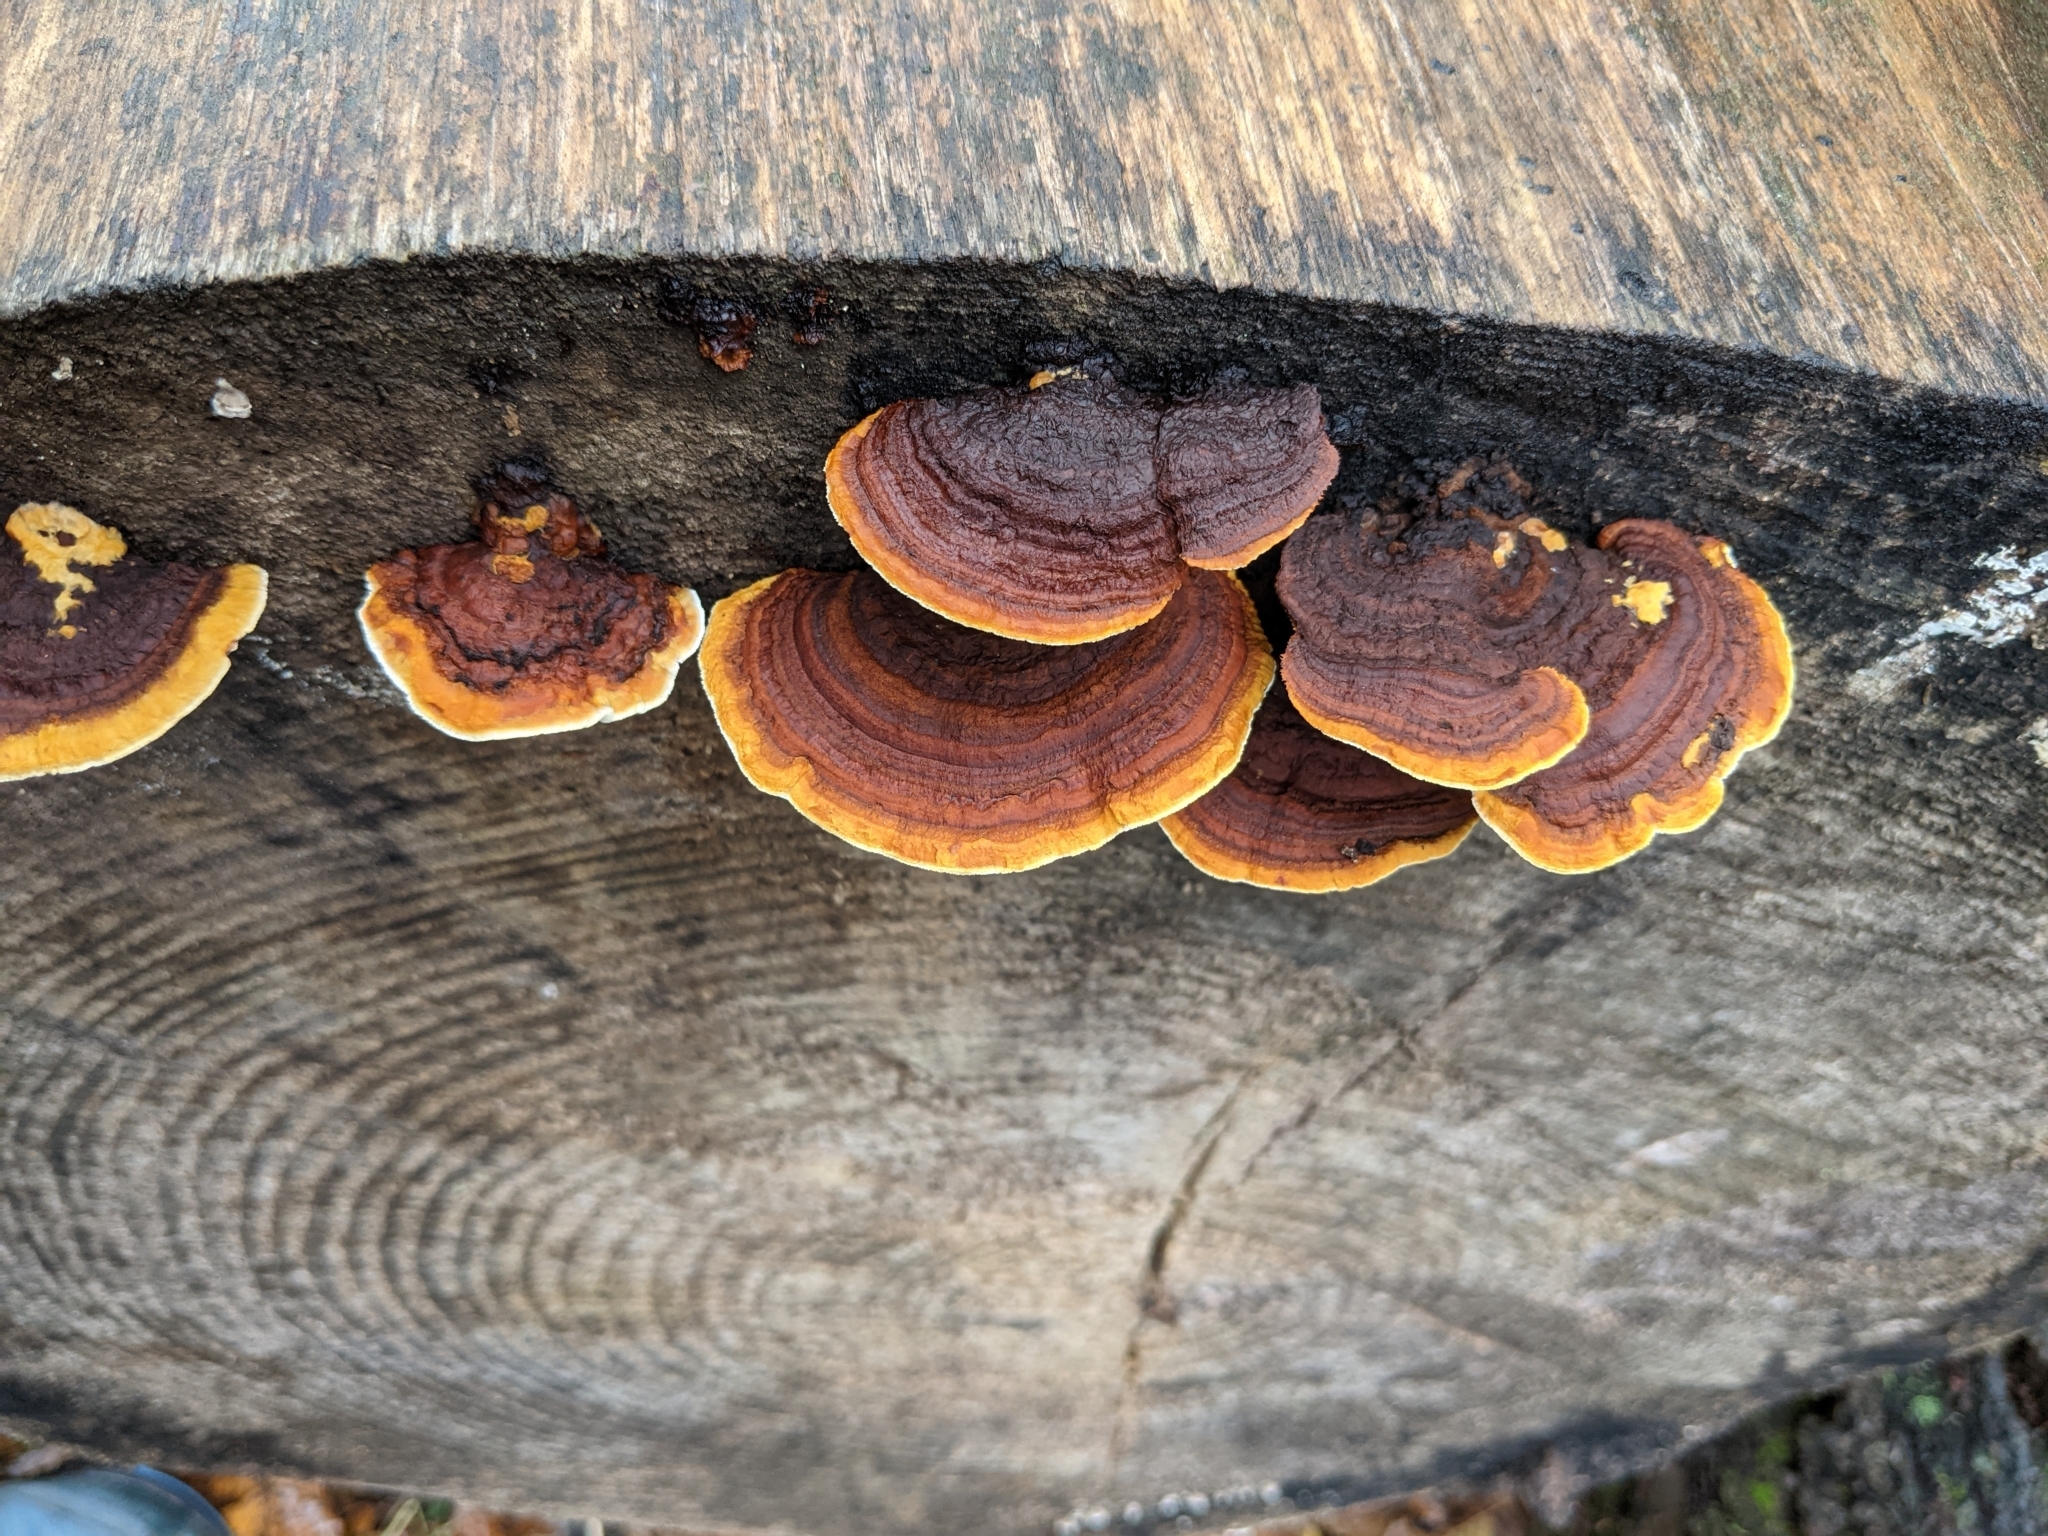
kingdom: Fungi
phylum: Basidiomycota
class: Agaricomycetes
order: Gloeophyllales
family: Gloeophyllaceae
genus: Gloeophyllum
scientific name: Gloeophyllum sepiarium
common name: Conifer mazegill
